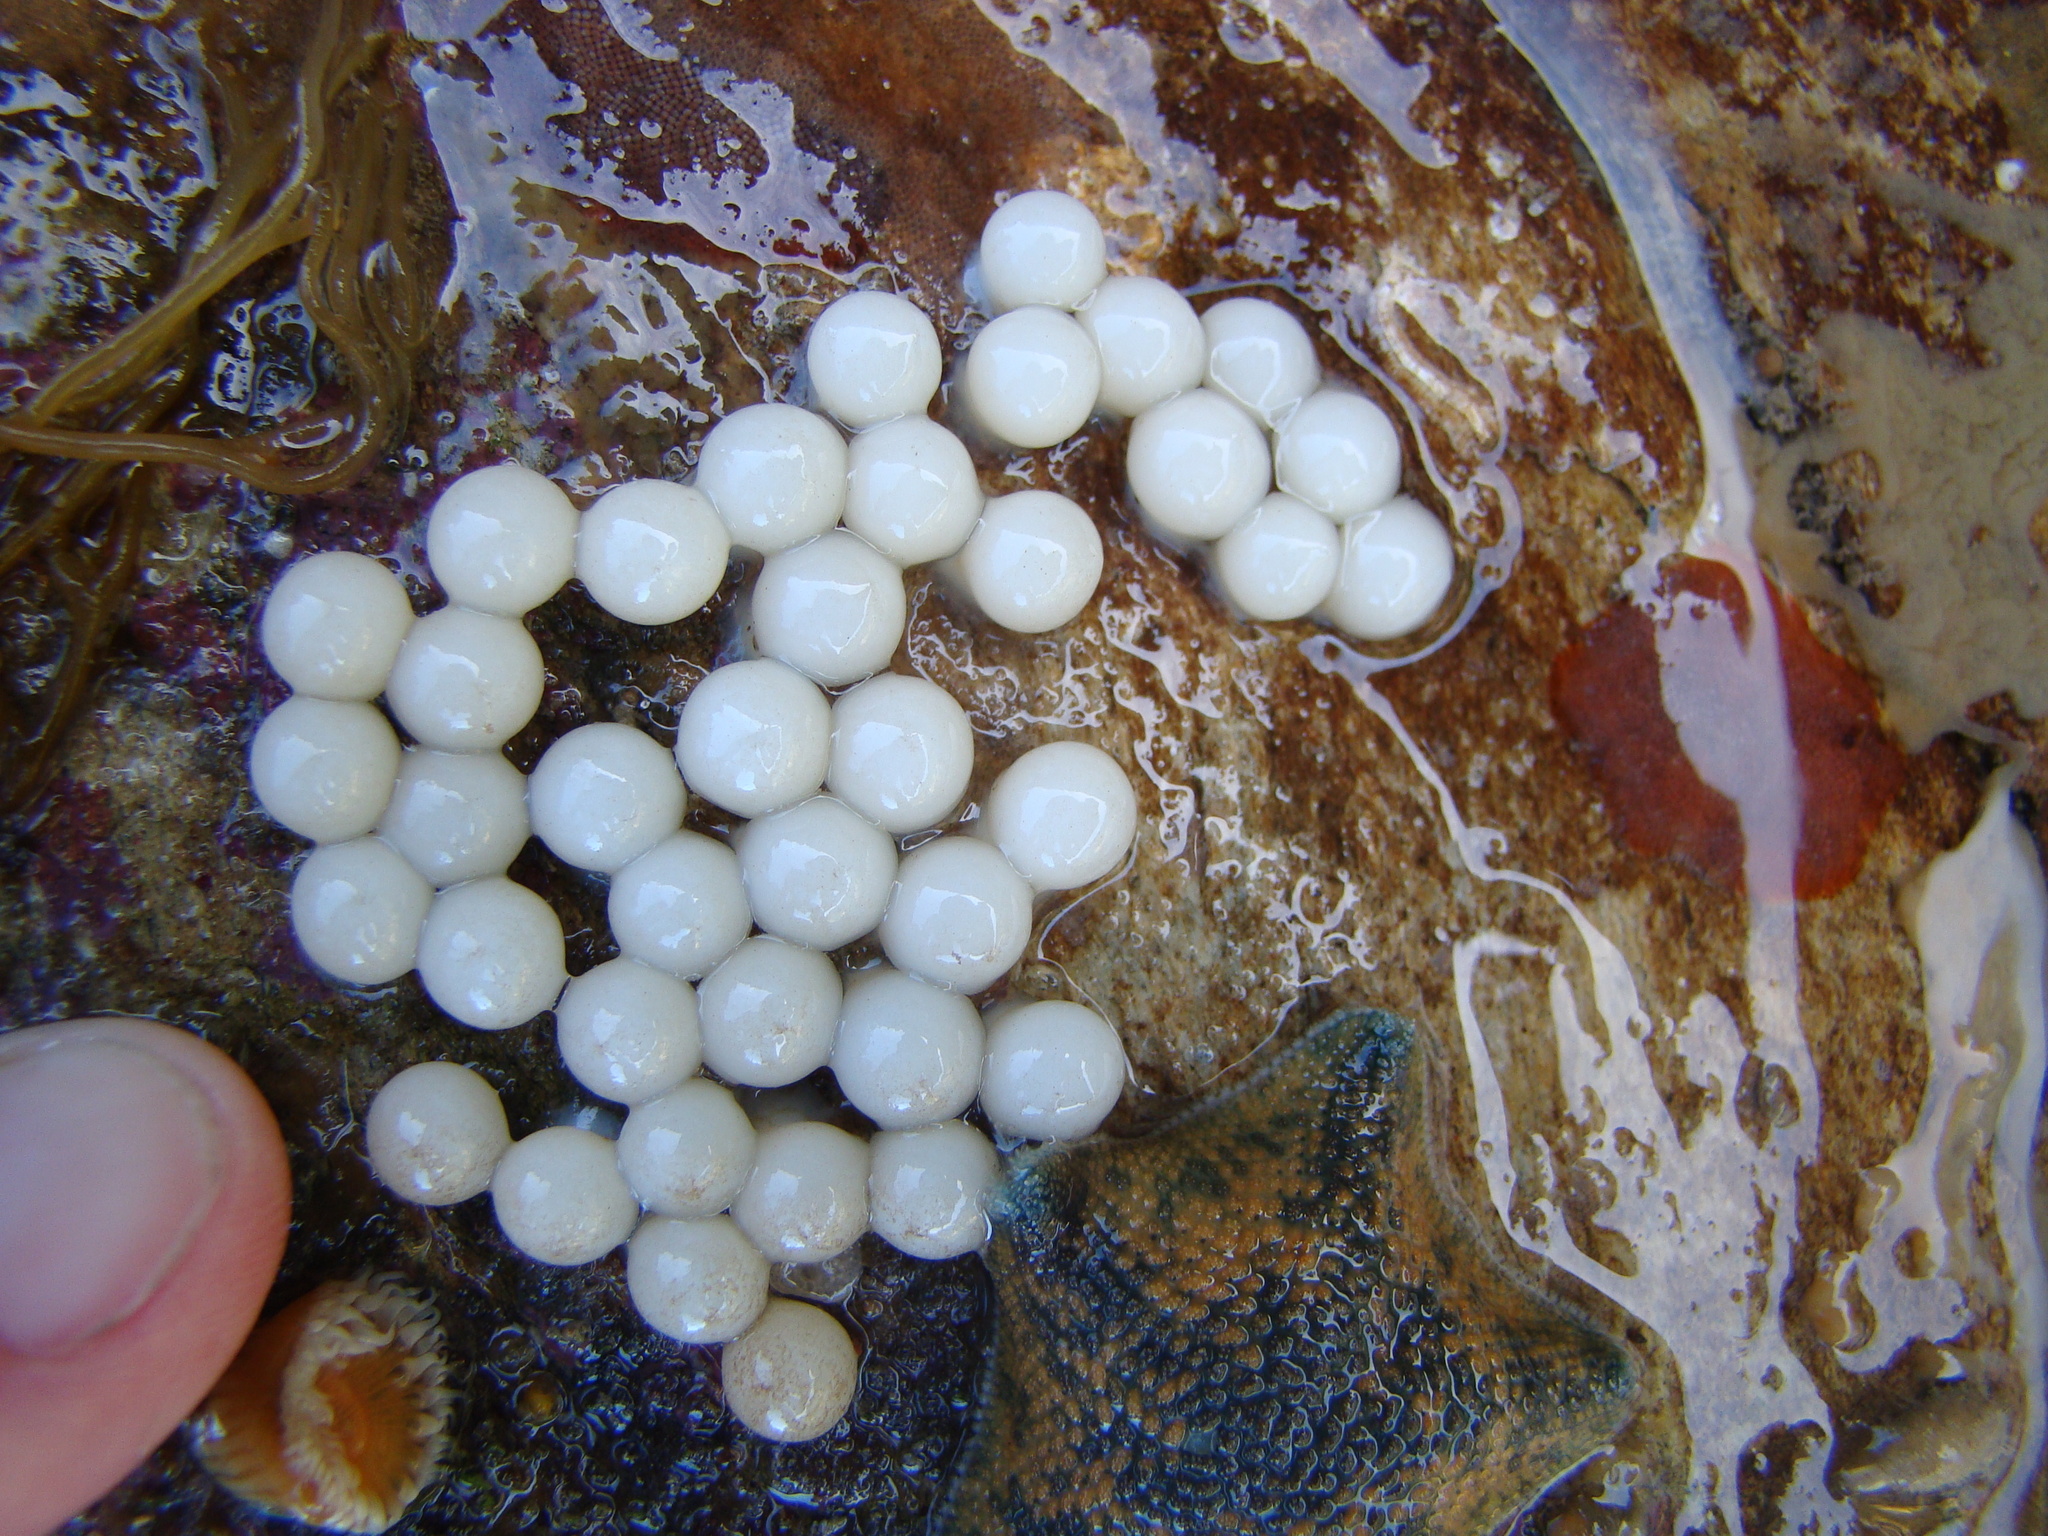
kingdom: Animalia
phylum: Mollusca
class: Cephalopoda
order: Sepiida
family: Sepiadariidae
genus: Sepioloidea
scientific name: Sepioloidea pacifica
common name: Pacific bobtail squid
